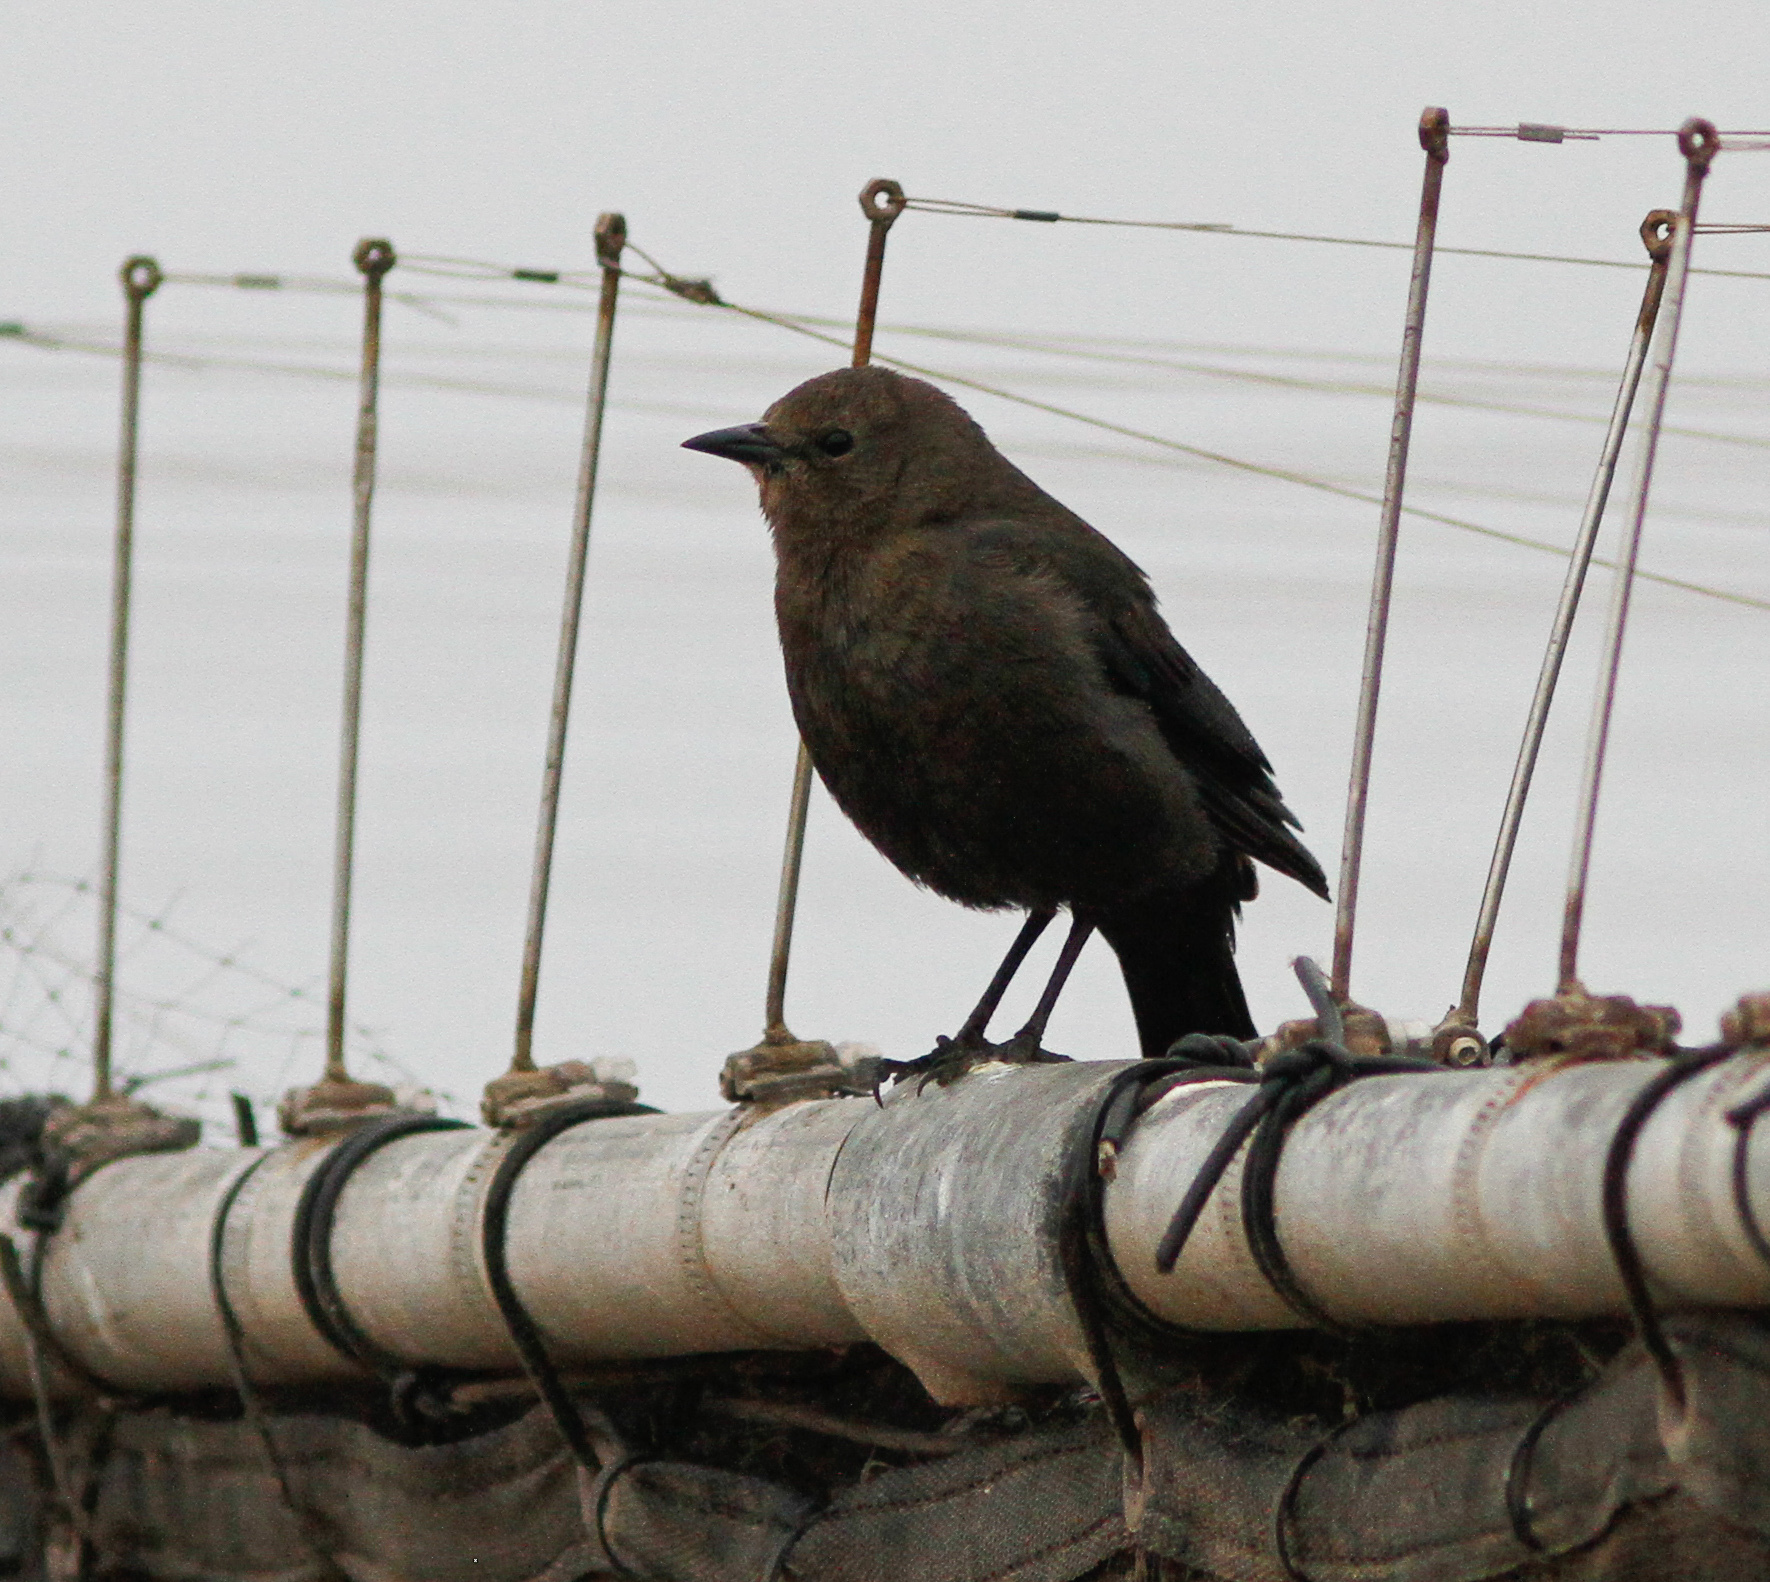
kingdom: Animalia
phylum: Chordata
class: Aves
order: Passeriformes
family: Icteridae
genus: Euphagus
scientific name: Euphagus cyanocephalus
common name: Brewer's blackbird
